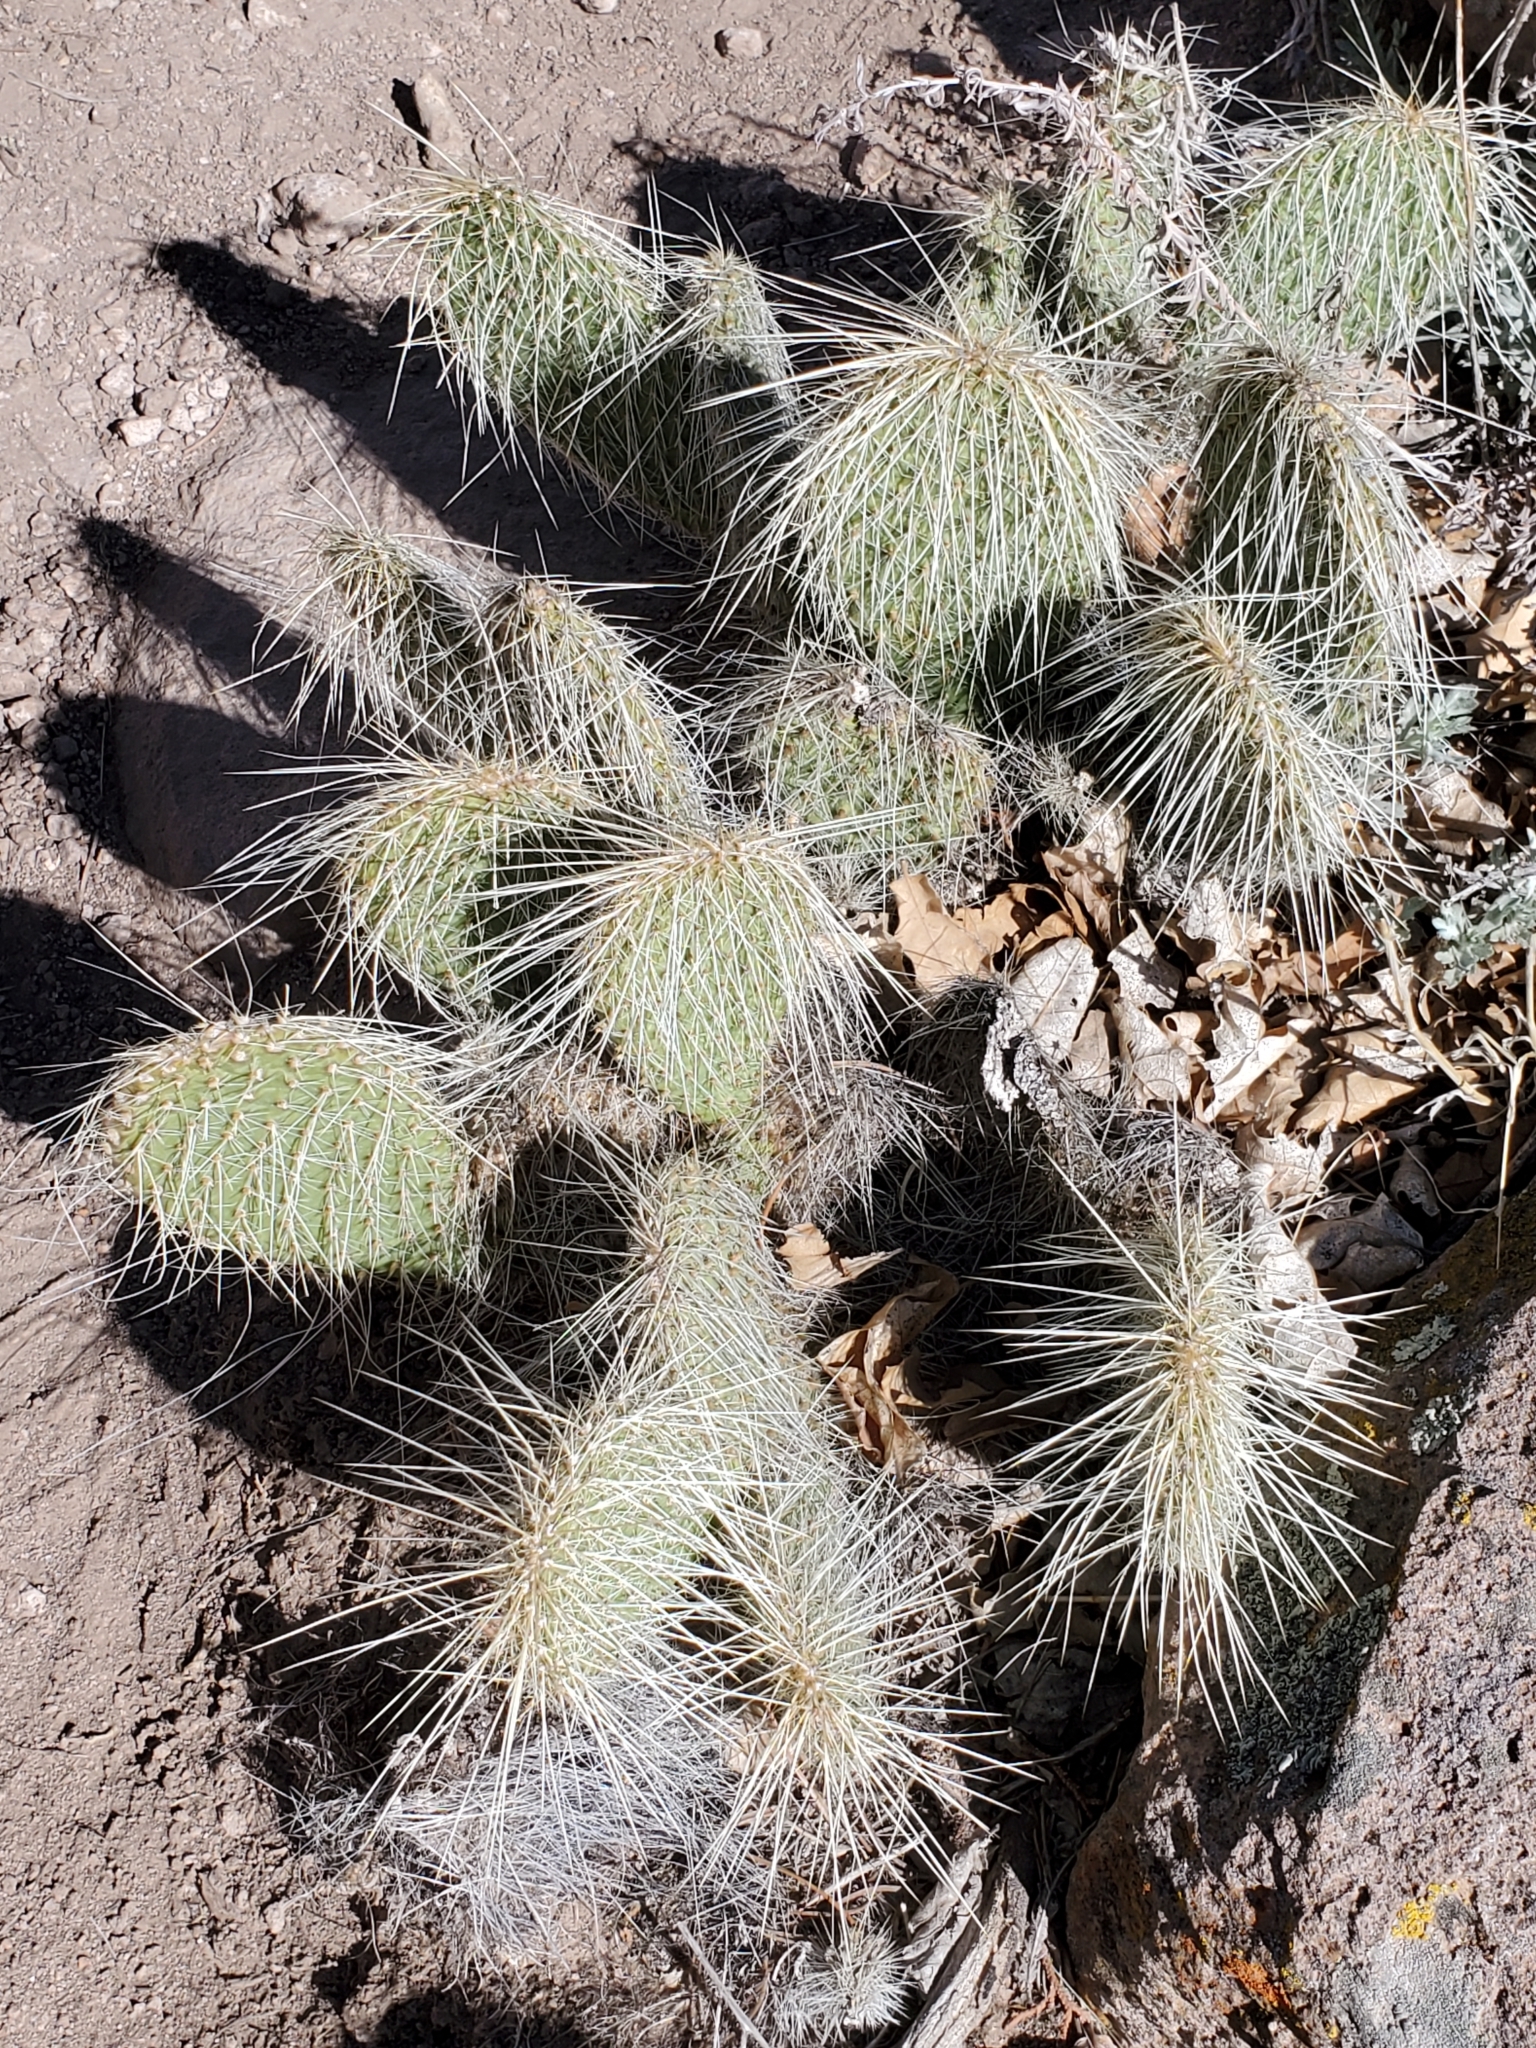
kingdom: Plantae
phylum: Tracheophyta
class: Magnoliopsida
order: Caryophyllales
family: Cactaceae
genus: Opuntia
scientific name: Opuntia polyacantha
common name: Plains prickly-pear
